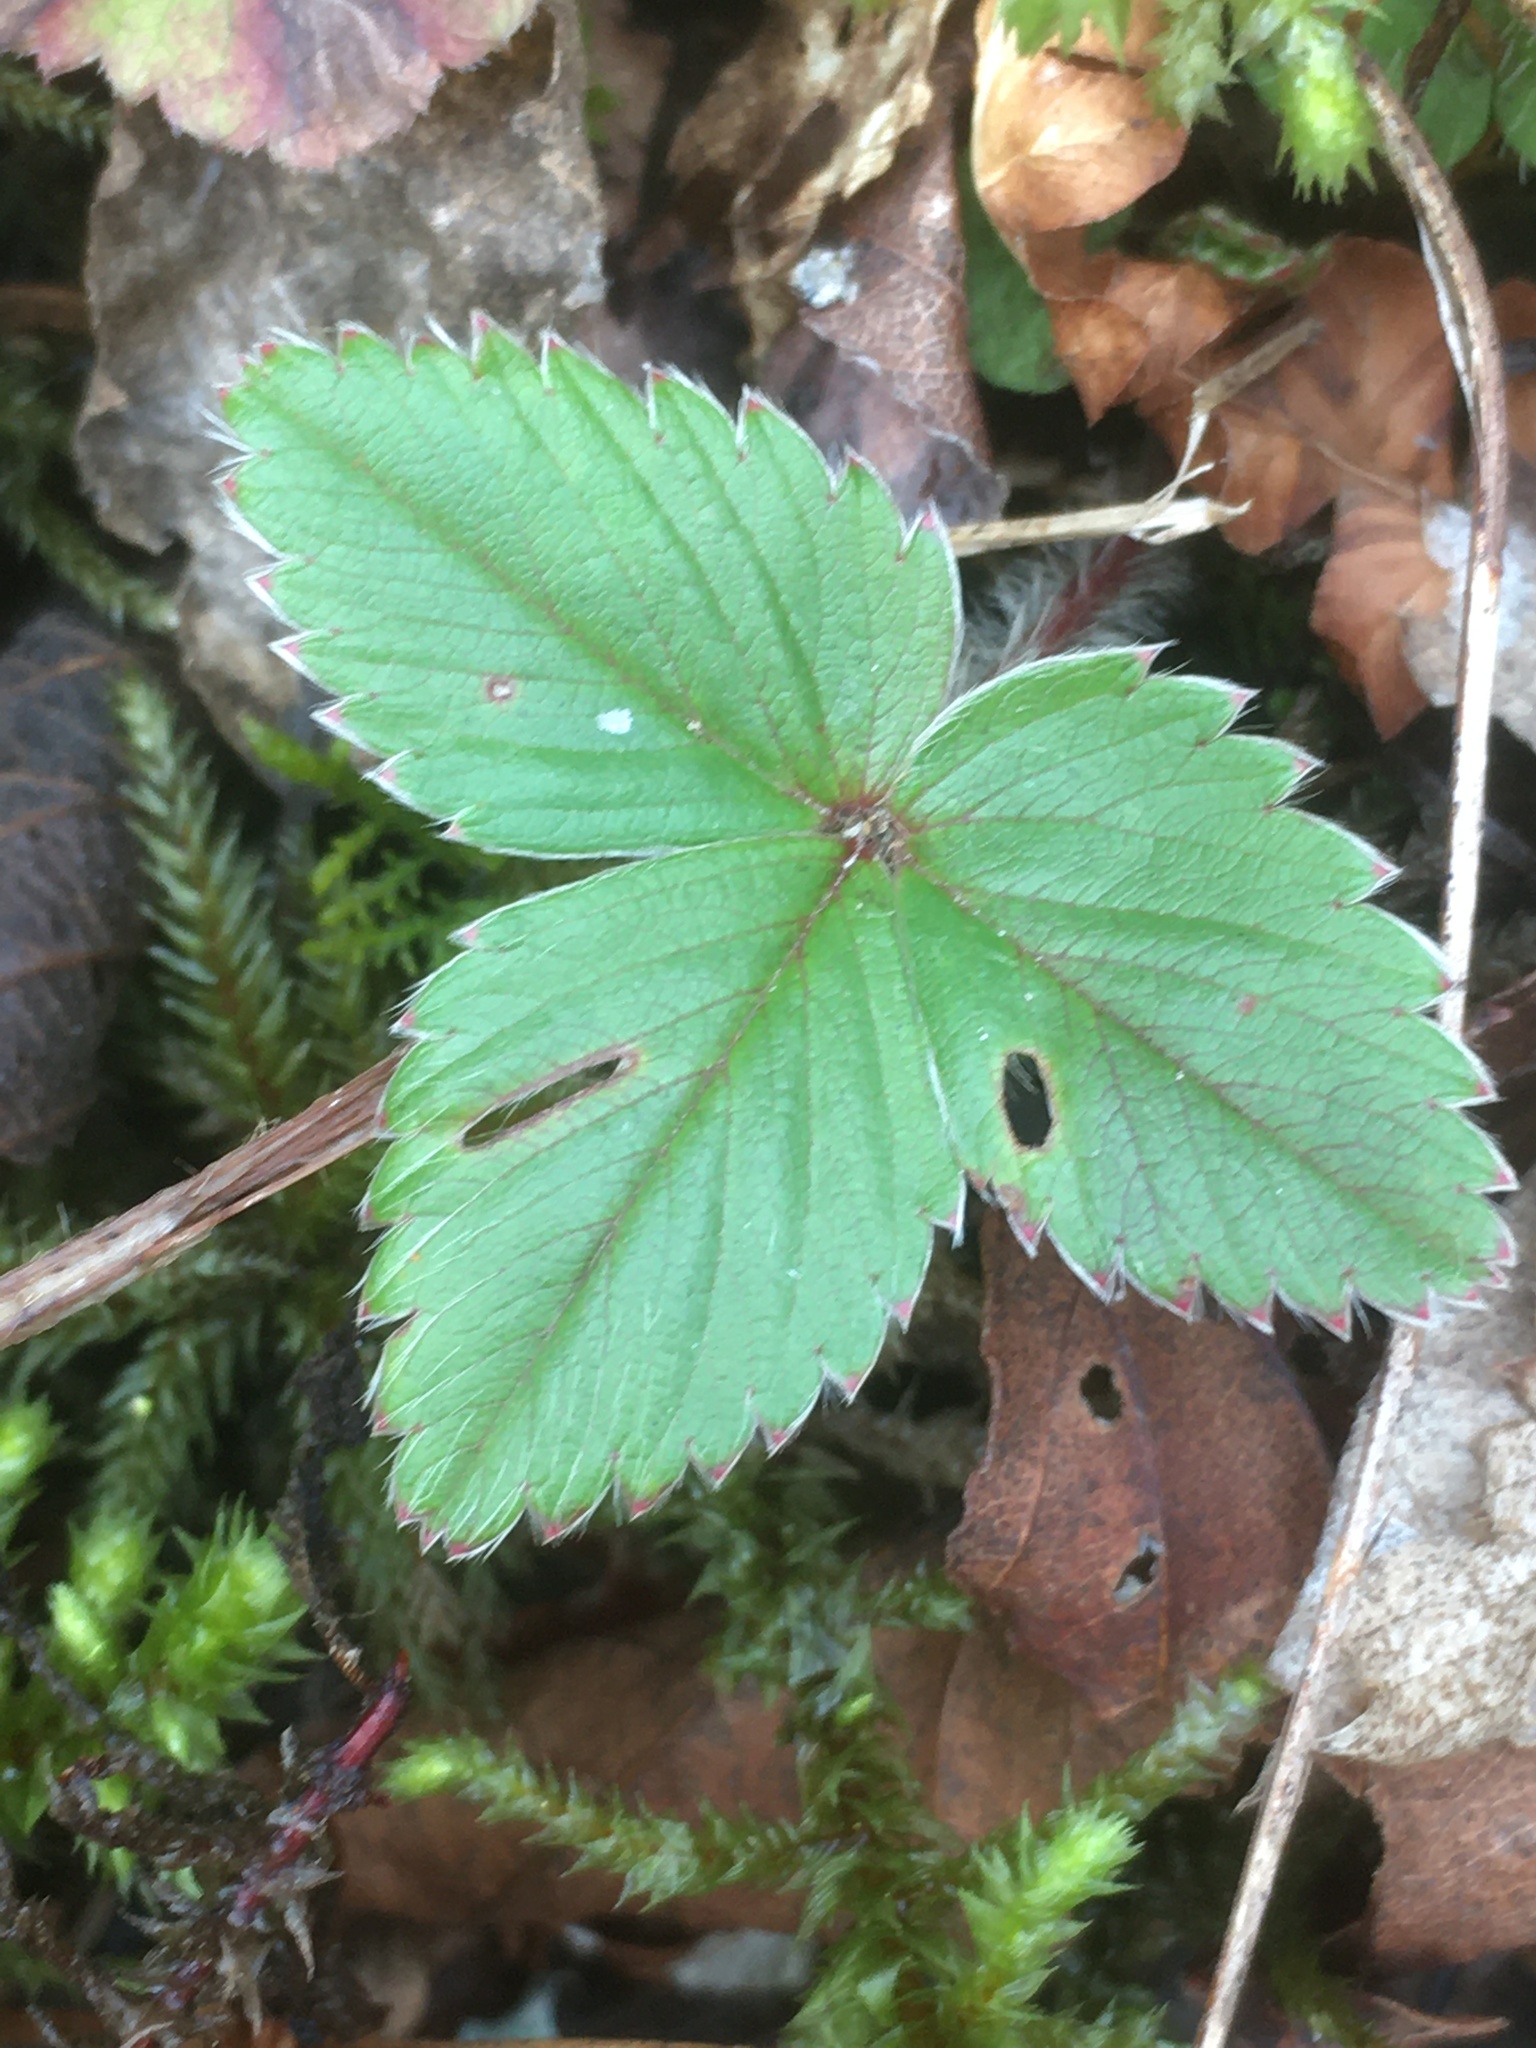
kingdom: Plantae
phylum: Tracheophyta
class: Magnoliopsida
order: Rosales
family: Rosaceae
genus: Fragaria
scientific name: Fragaria virginiana
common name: Thickleaved wild strawberry
